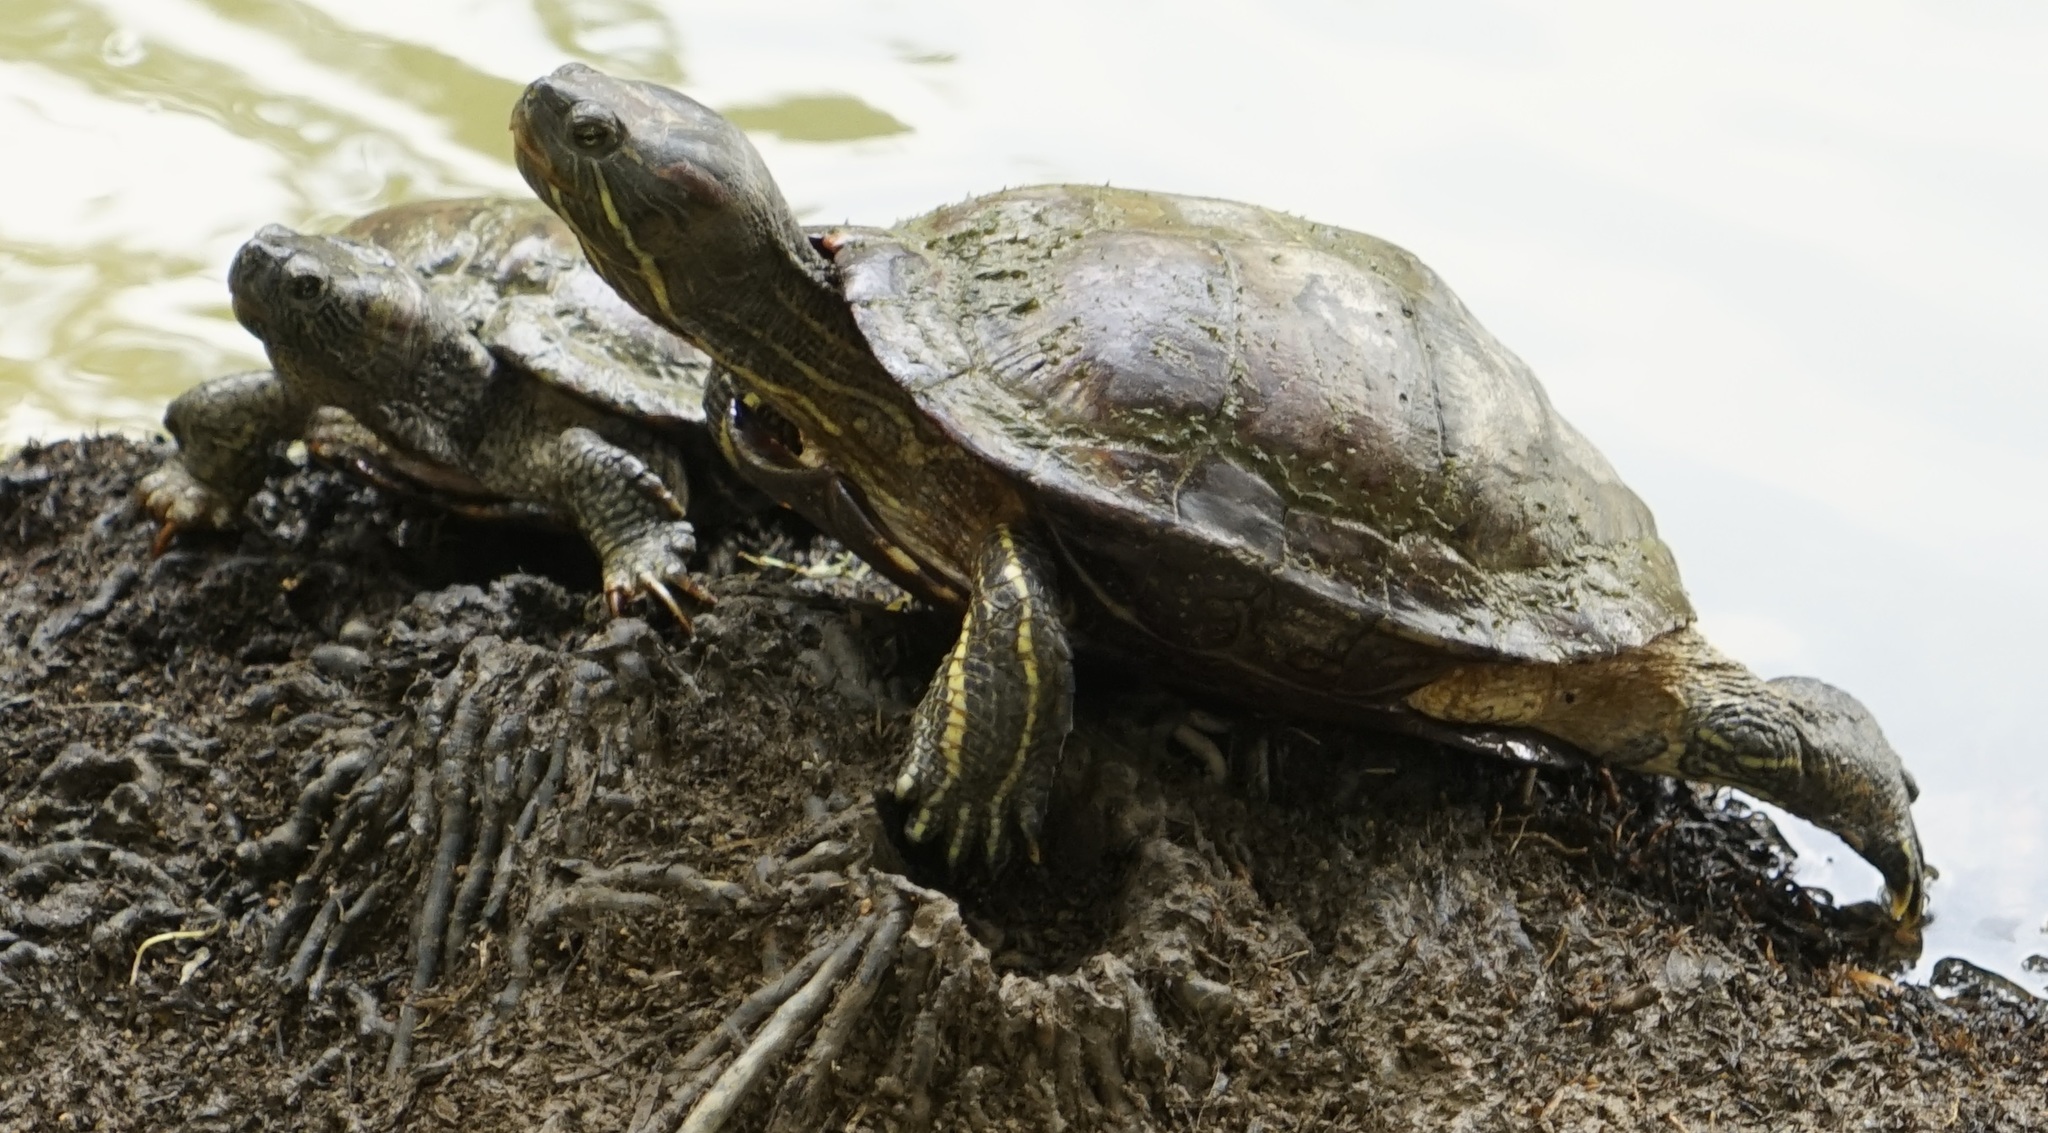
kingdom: Animalia
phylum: Chordata
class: Testudines
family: Emydidae
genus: Trachemys
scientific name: Trachemys scripta
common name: Slider
